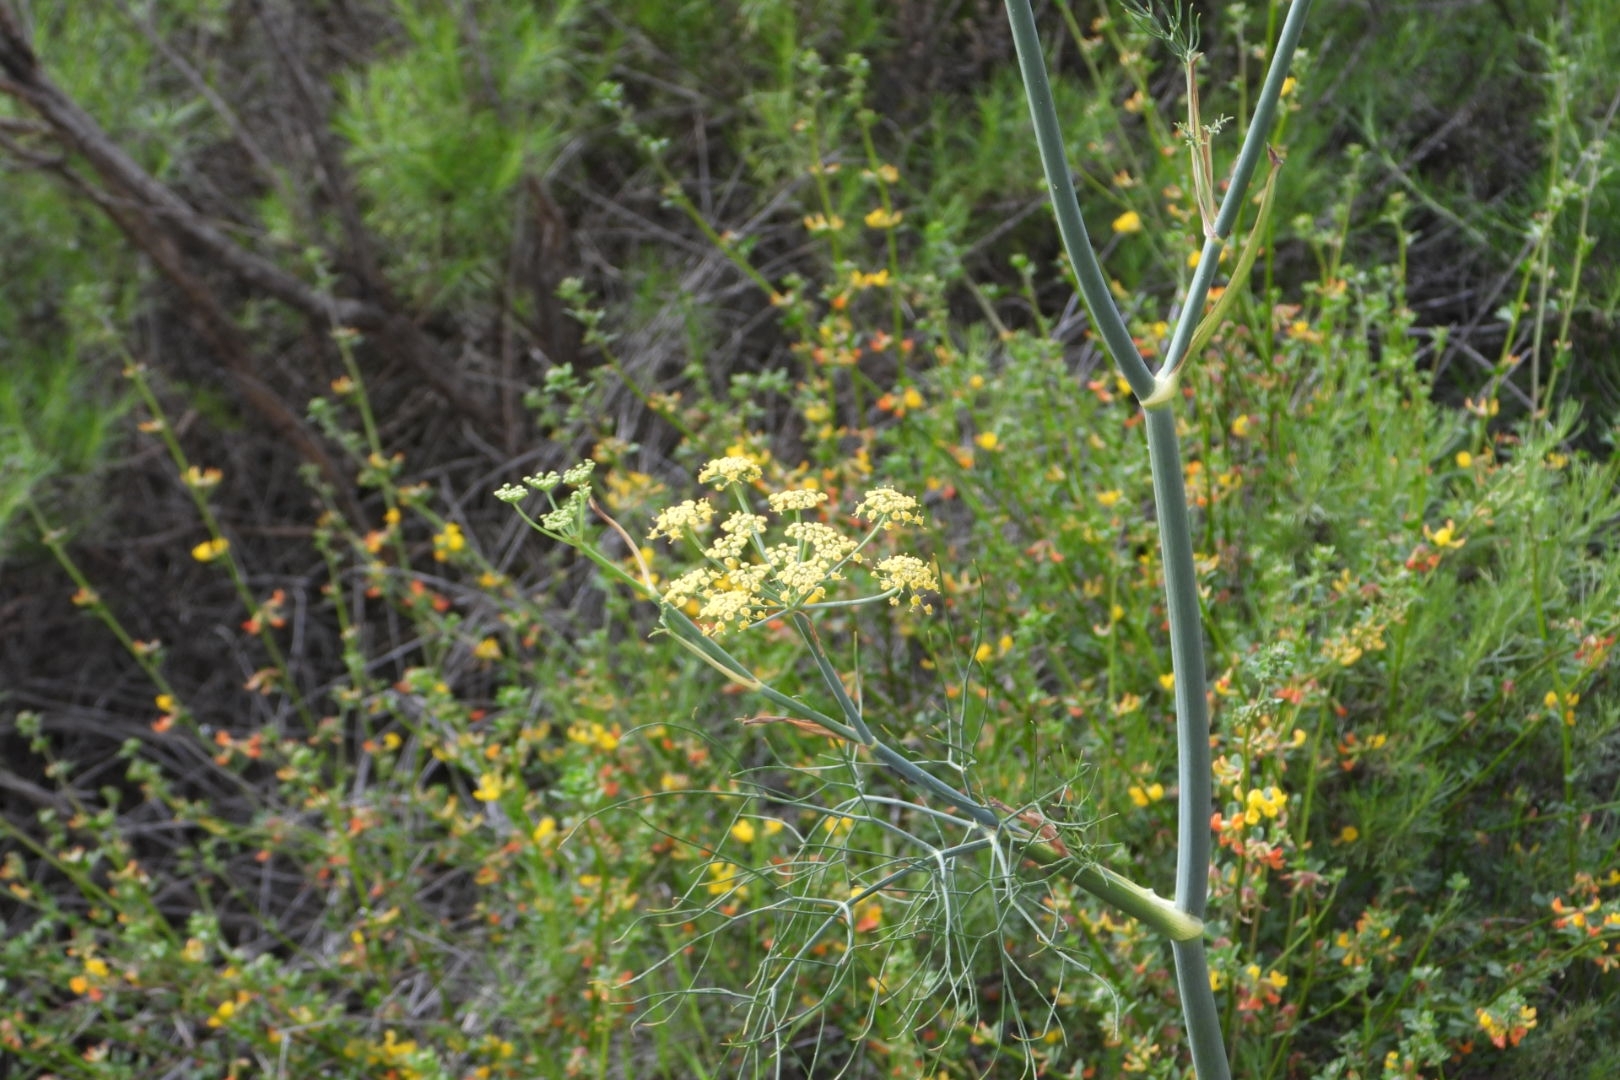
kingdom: Plantae
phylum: Tracheophyta
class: Magnoliopsida
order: Apiales
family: Apiaceae
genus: Foeniculum
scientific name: Foeniculum vulgare
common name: Fennel
